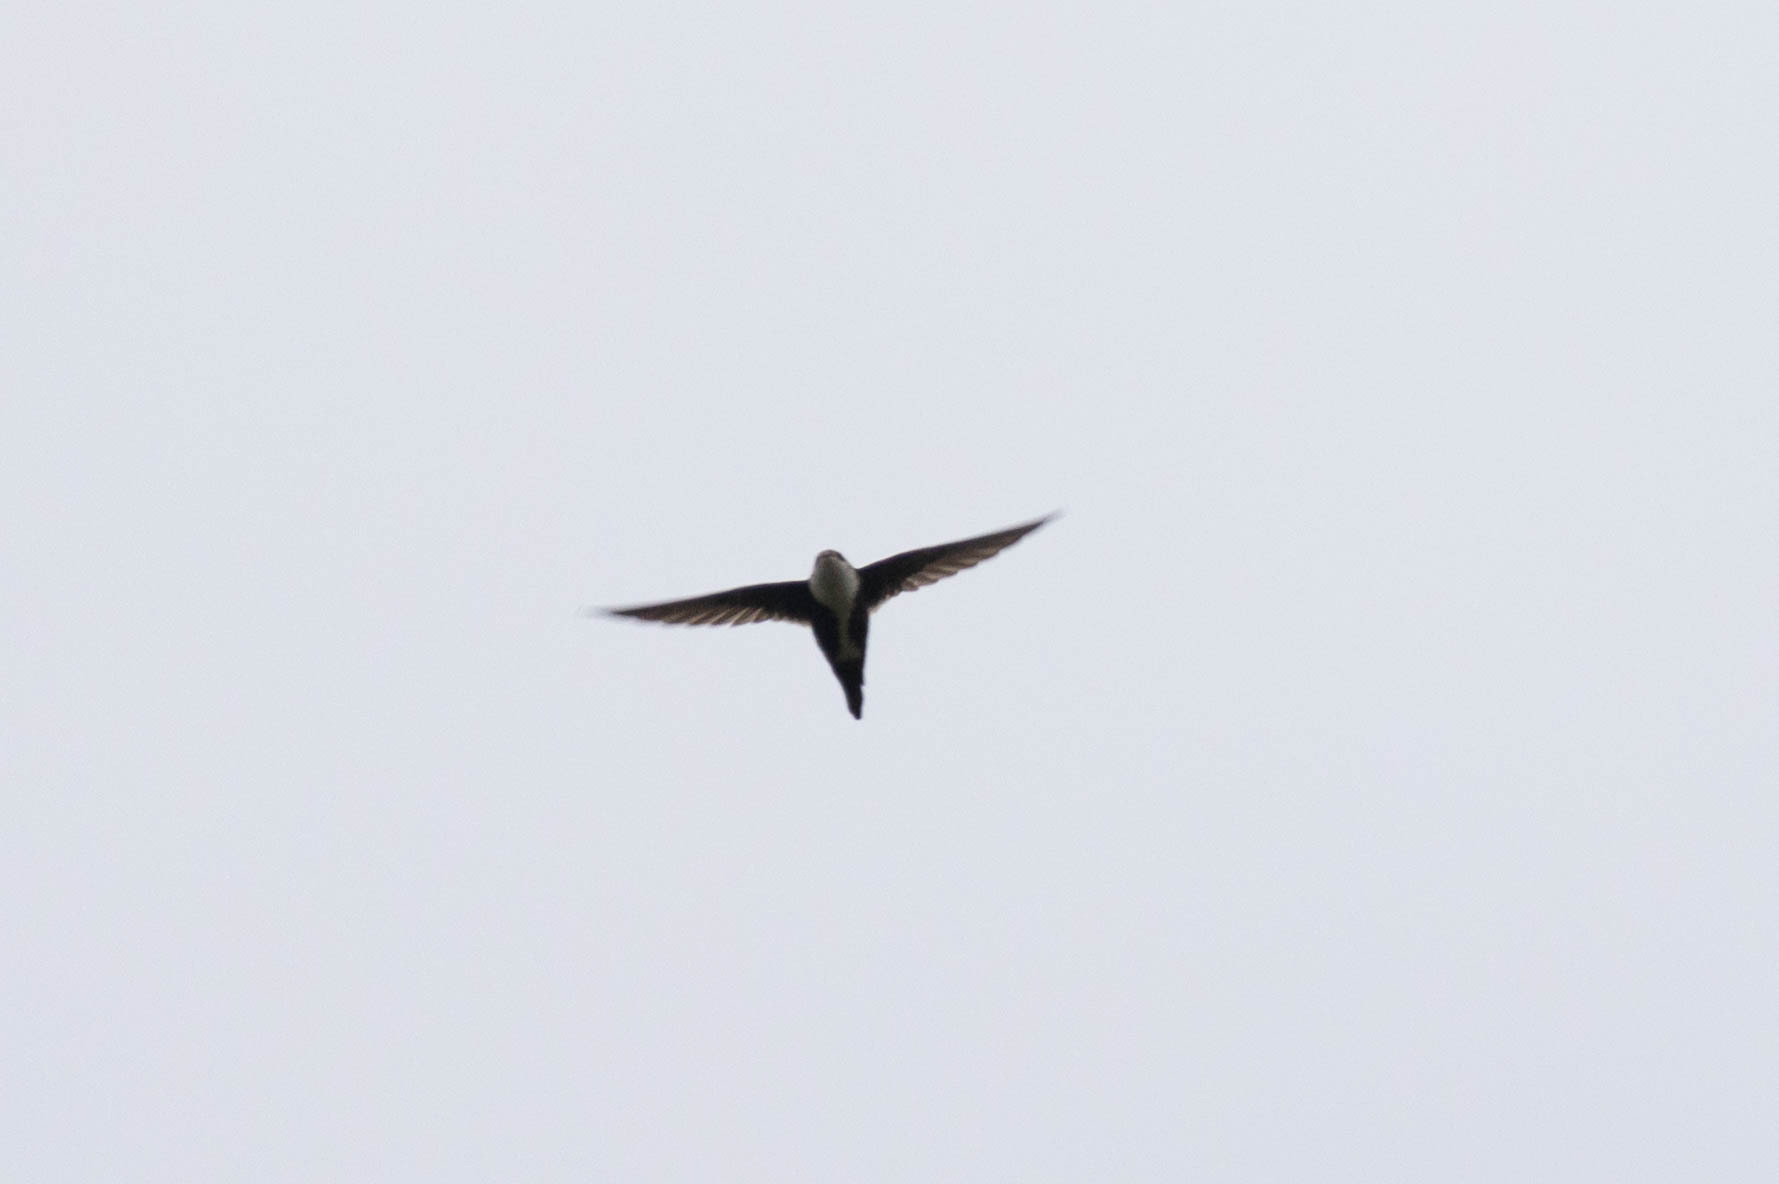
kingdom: Animalia
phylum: Chordata
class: Aves
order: Apodiformes
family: Apodidae
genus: Aeronautes
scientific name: Aeronautes saxatalis
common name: White-throated swift
